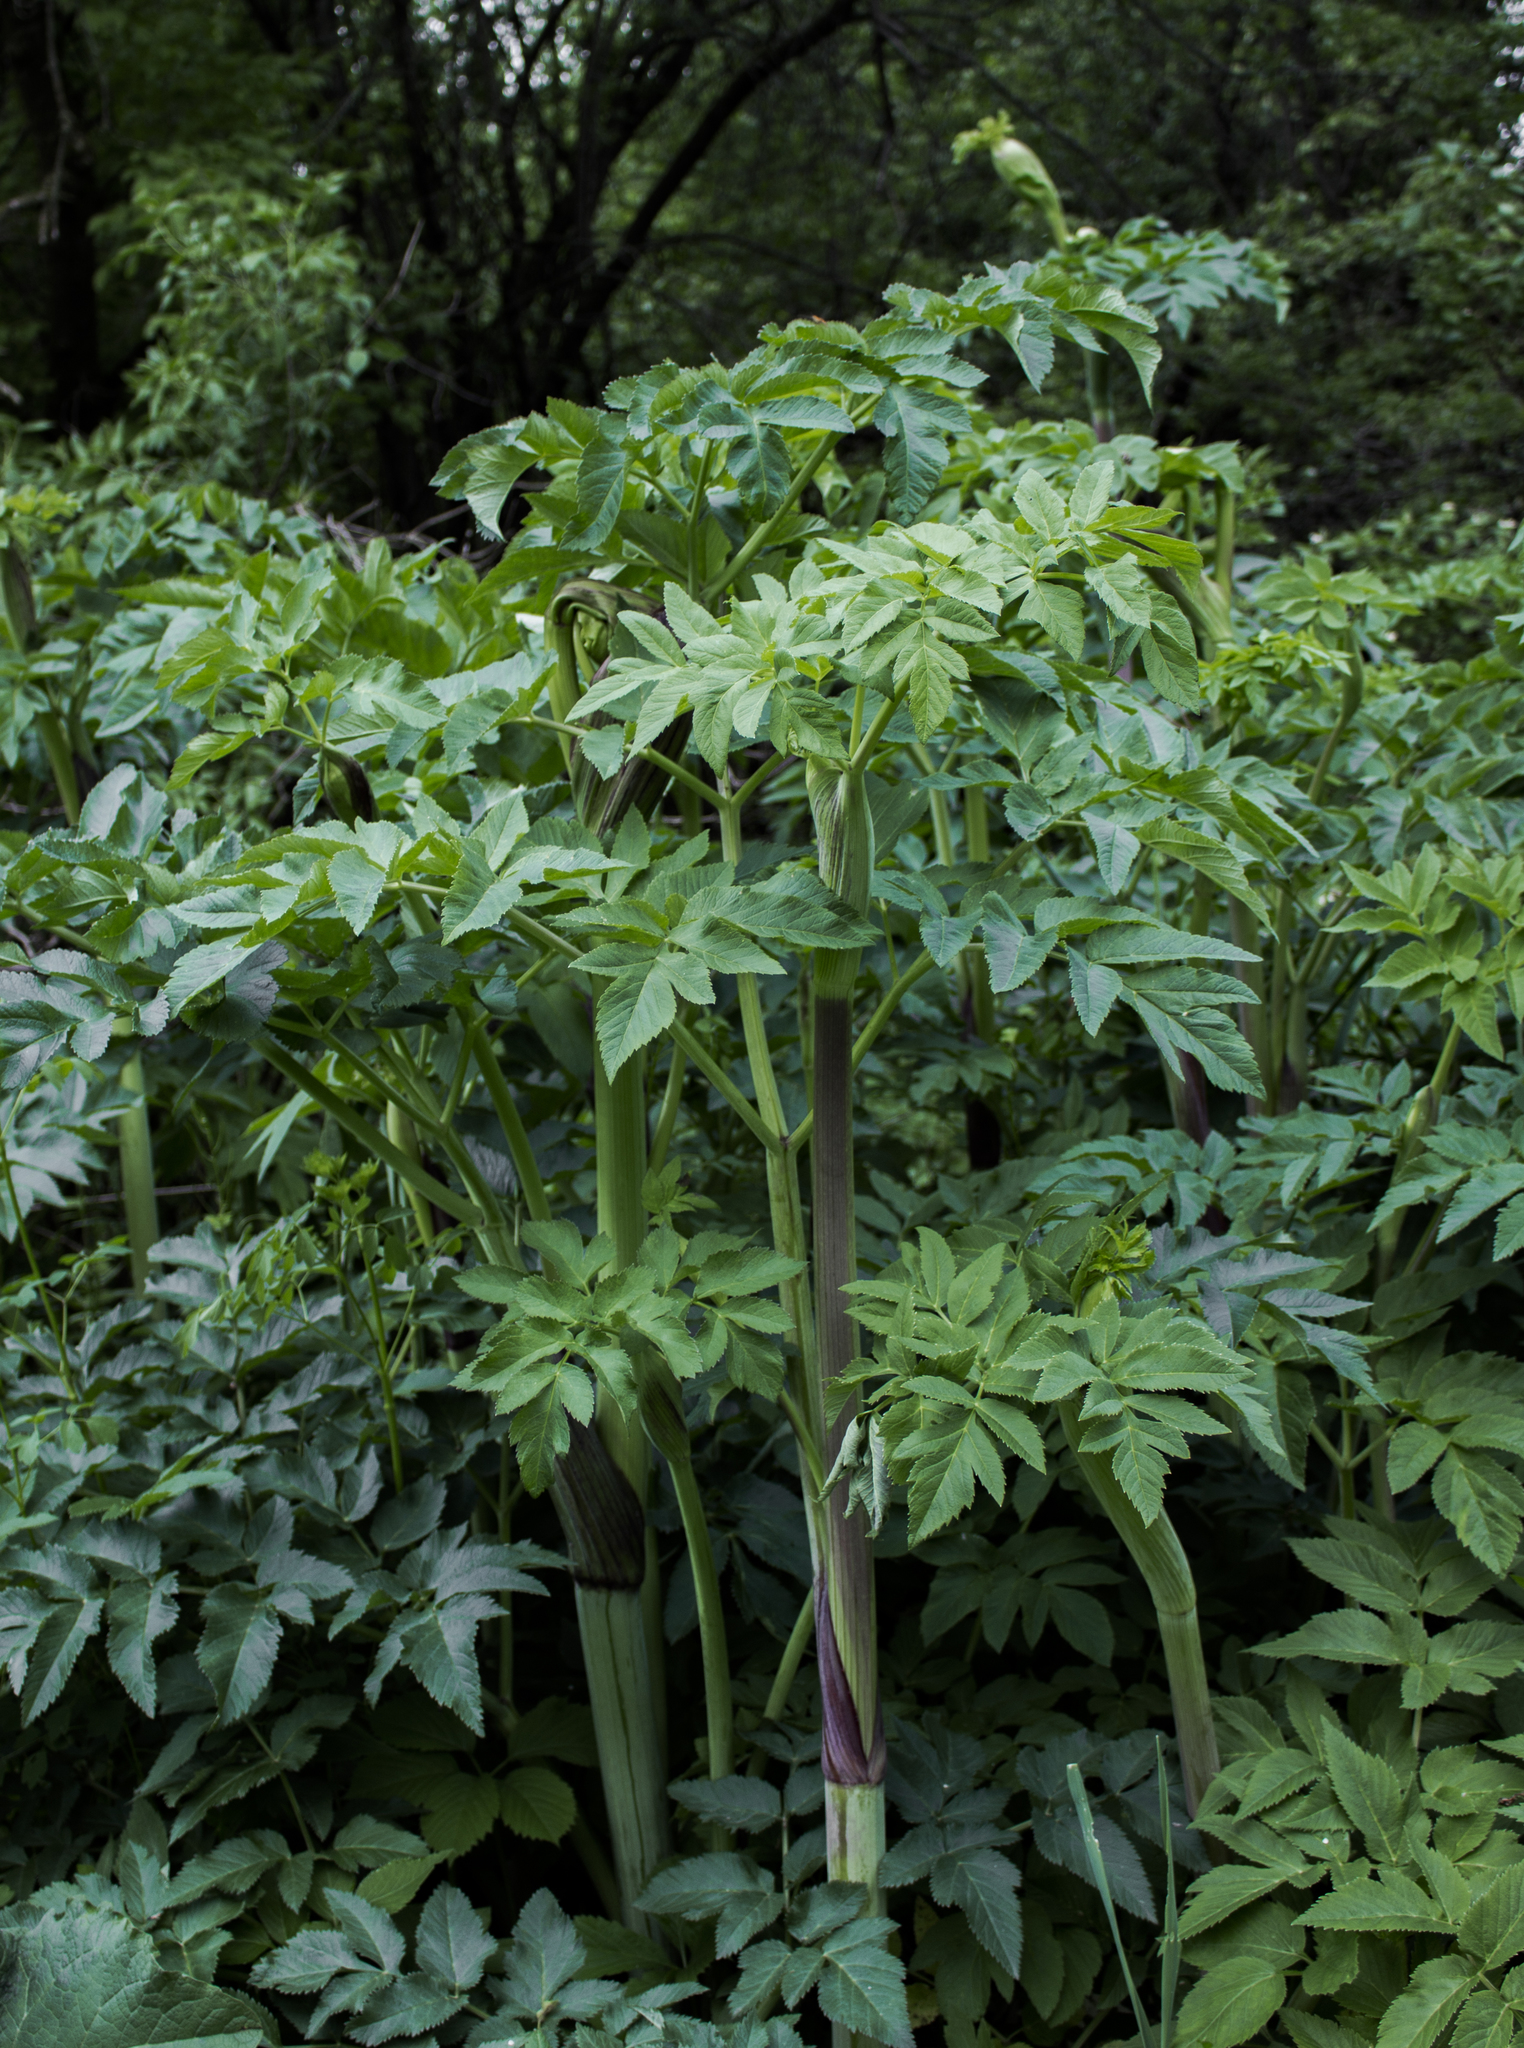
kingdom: Plantae
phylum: Tracheophyta
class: Magnoliopsida
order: Apiales
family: Apiaceae
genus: Angelica
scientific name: Angelica atropurpurea
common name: Great angelica
